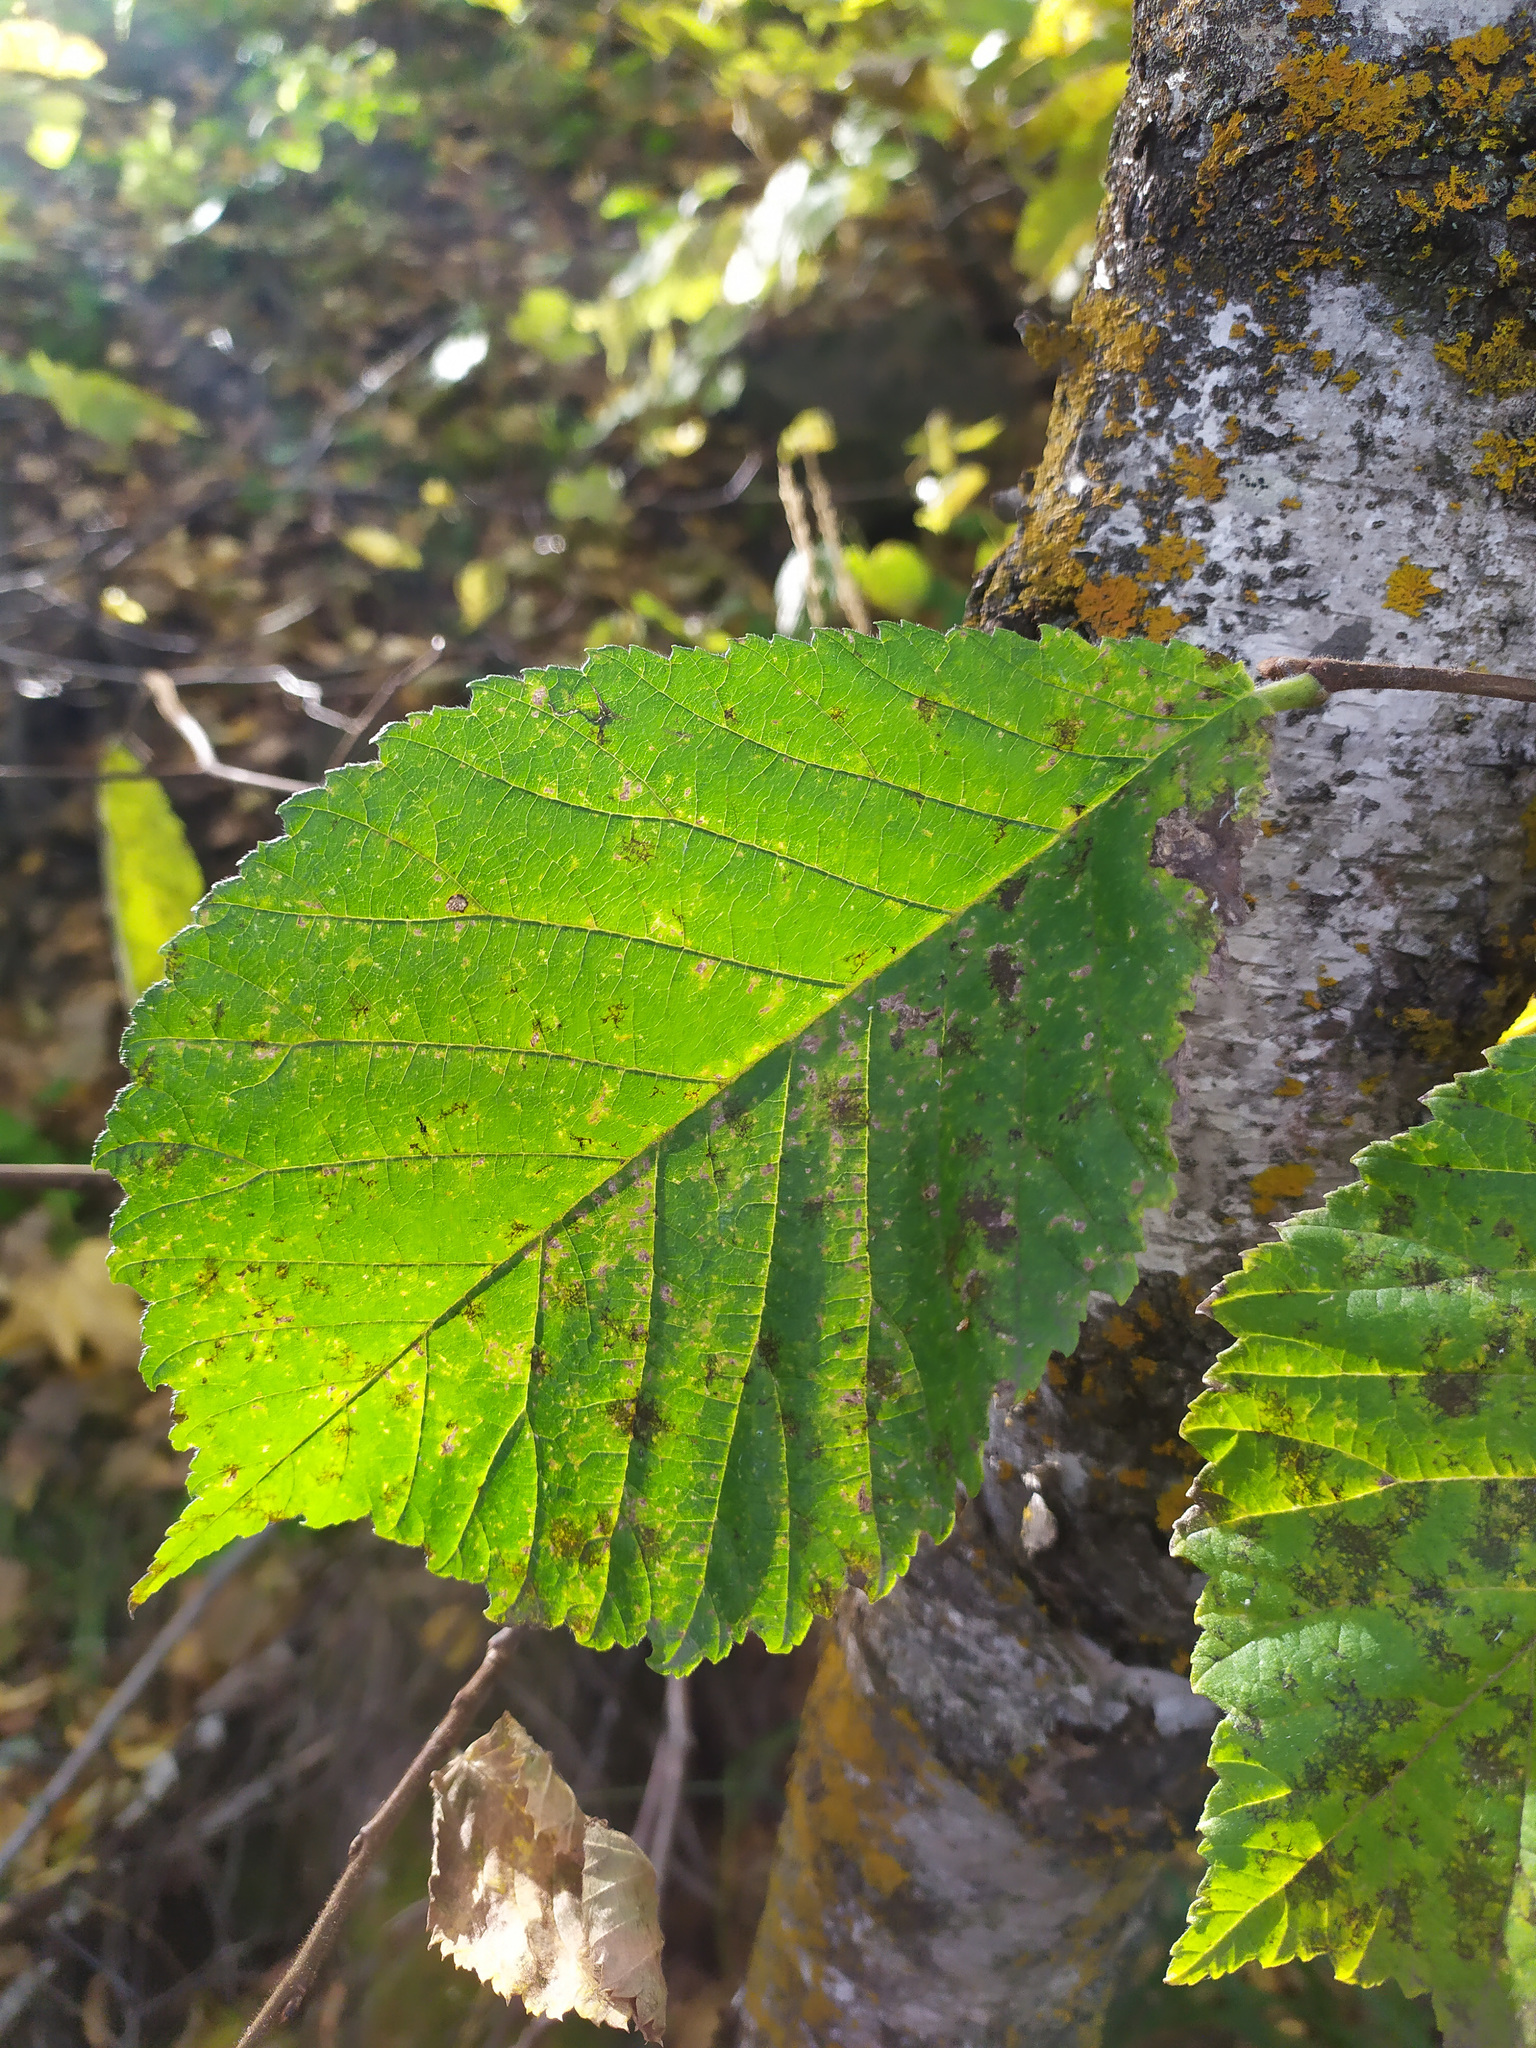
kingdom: Plantae
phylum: Tracheophyta
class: Magnoliopsida
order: Rosales
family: Ulmaceae
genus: Ulmus
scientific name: Ulmus glabra
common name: Wych elm
